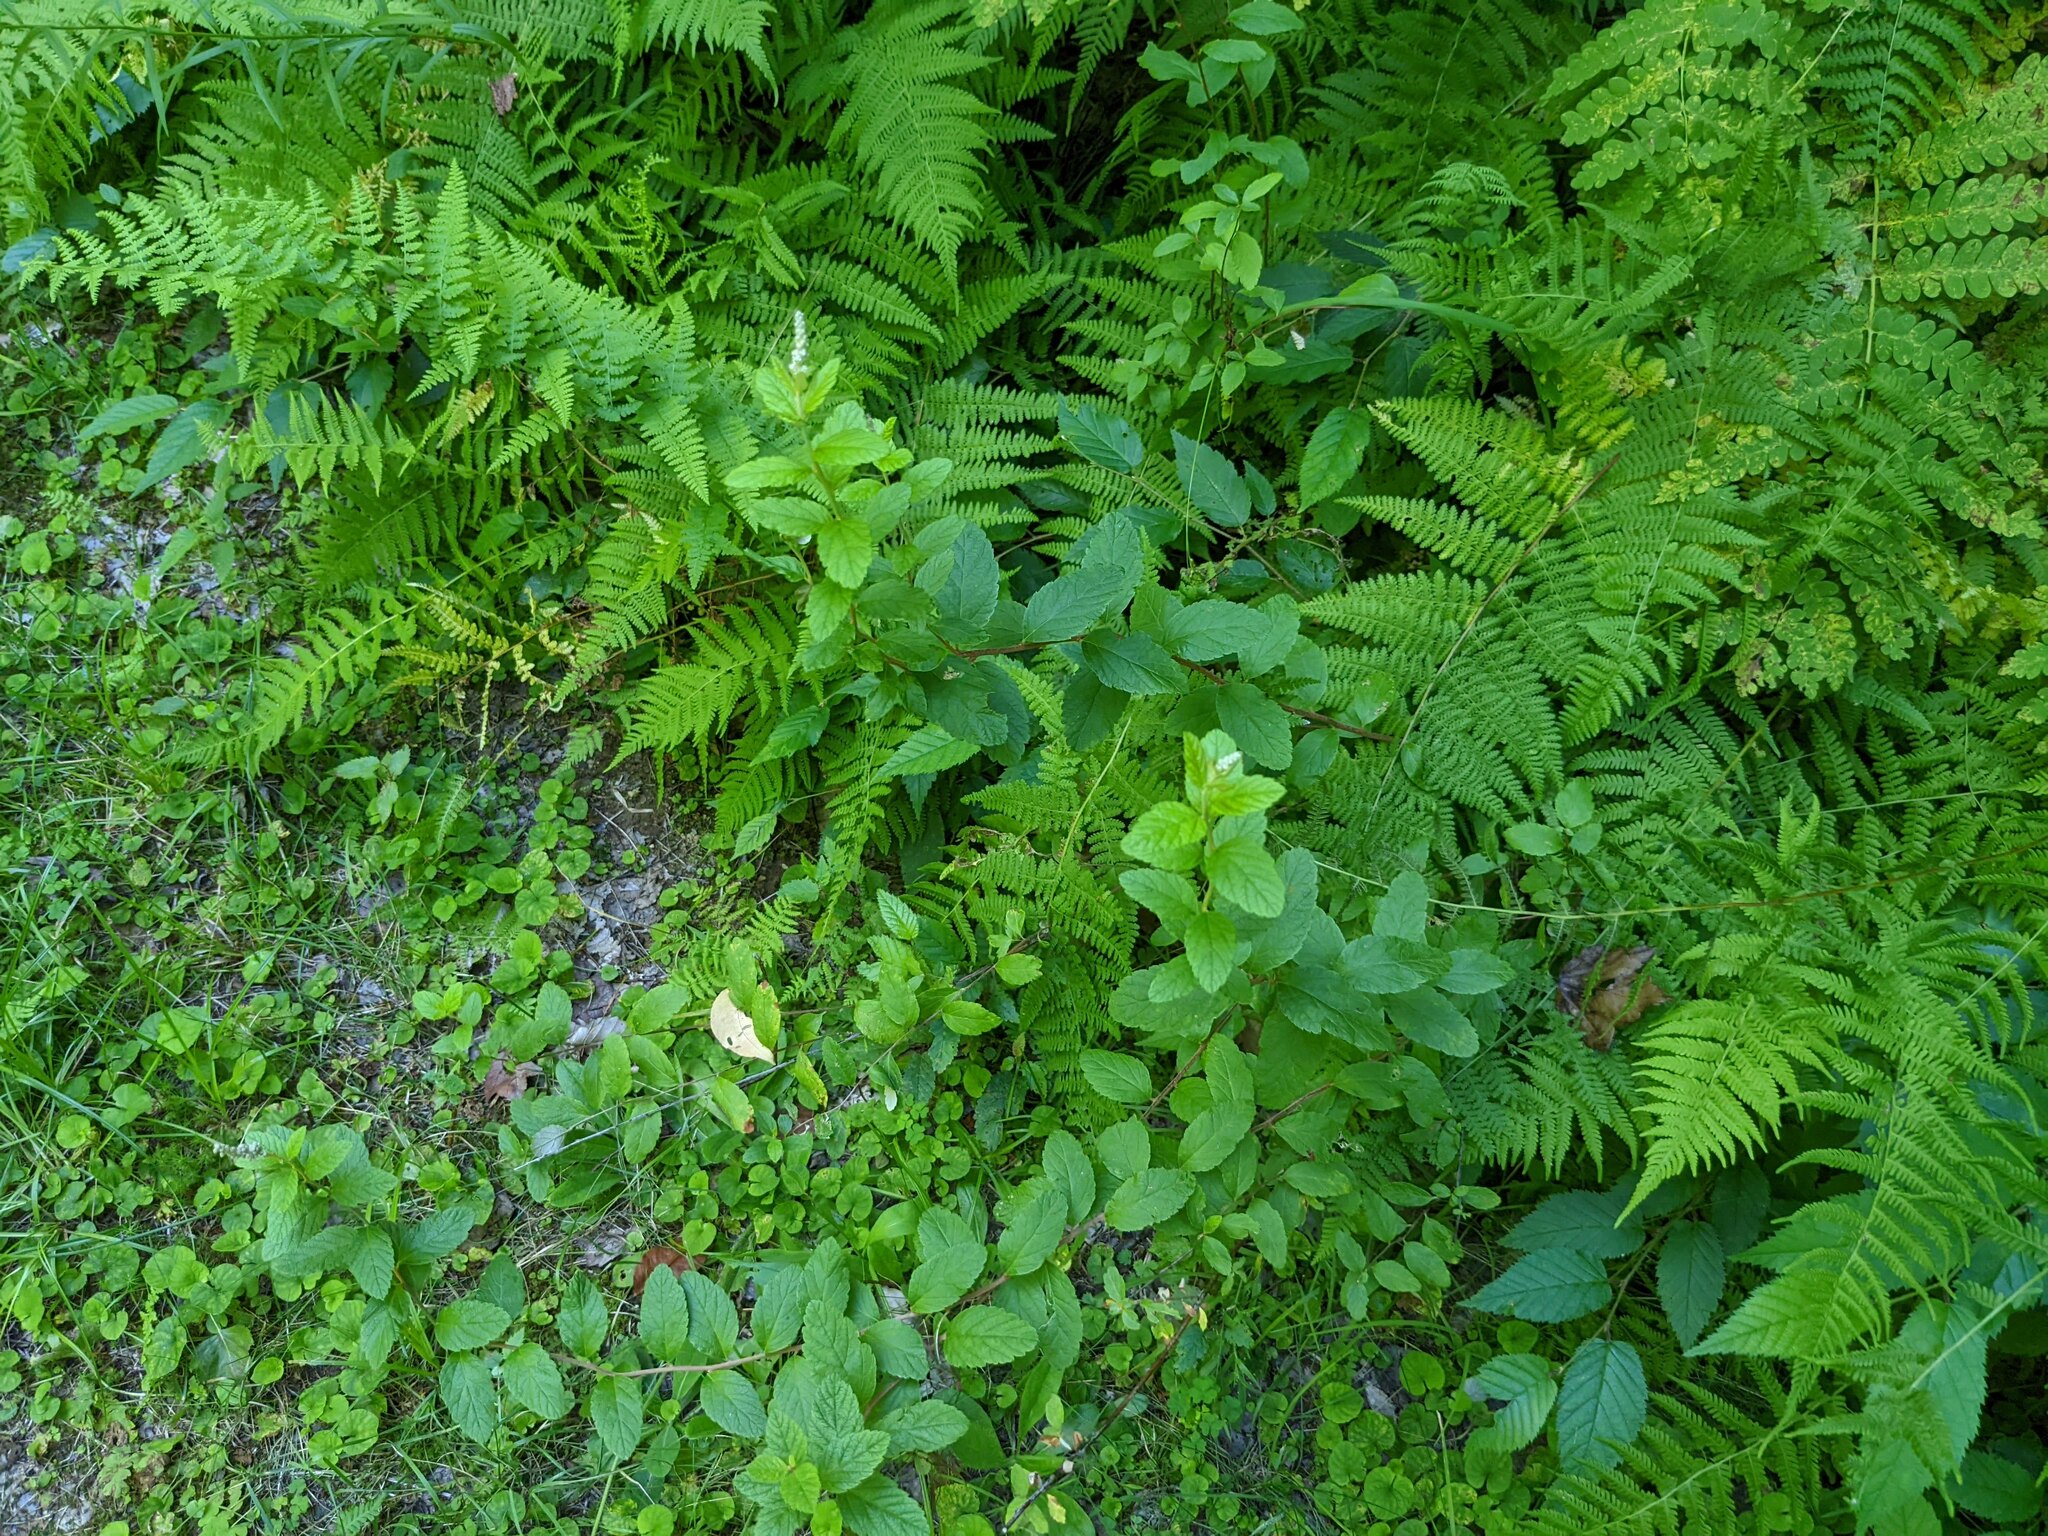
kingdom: Plantae
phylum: Tracheophyta
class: Magnoliopsida
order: Rosales
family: Rosaceae
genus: Spiraea
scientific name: Spiraea tomentosa
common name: Hardhack
